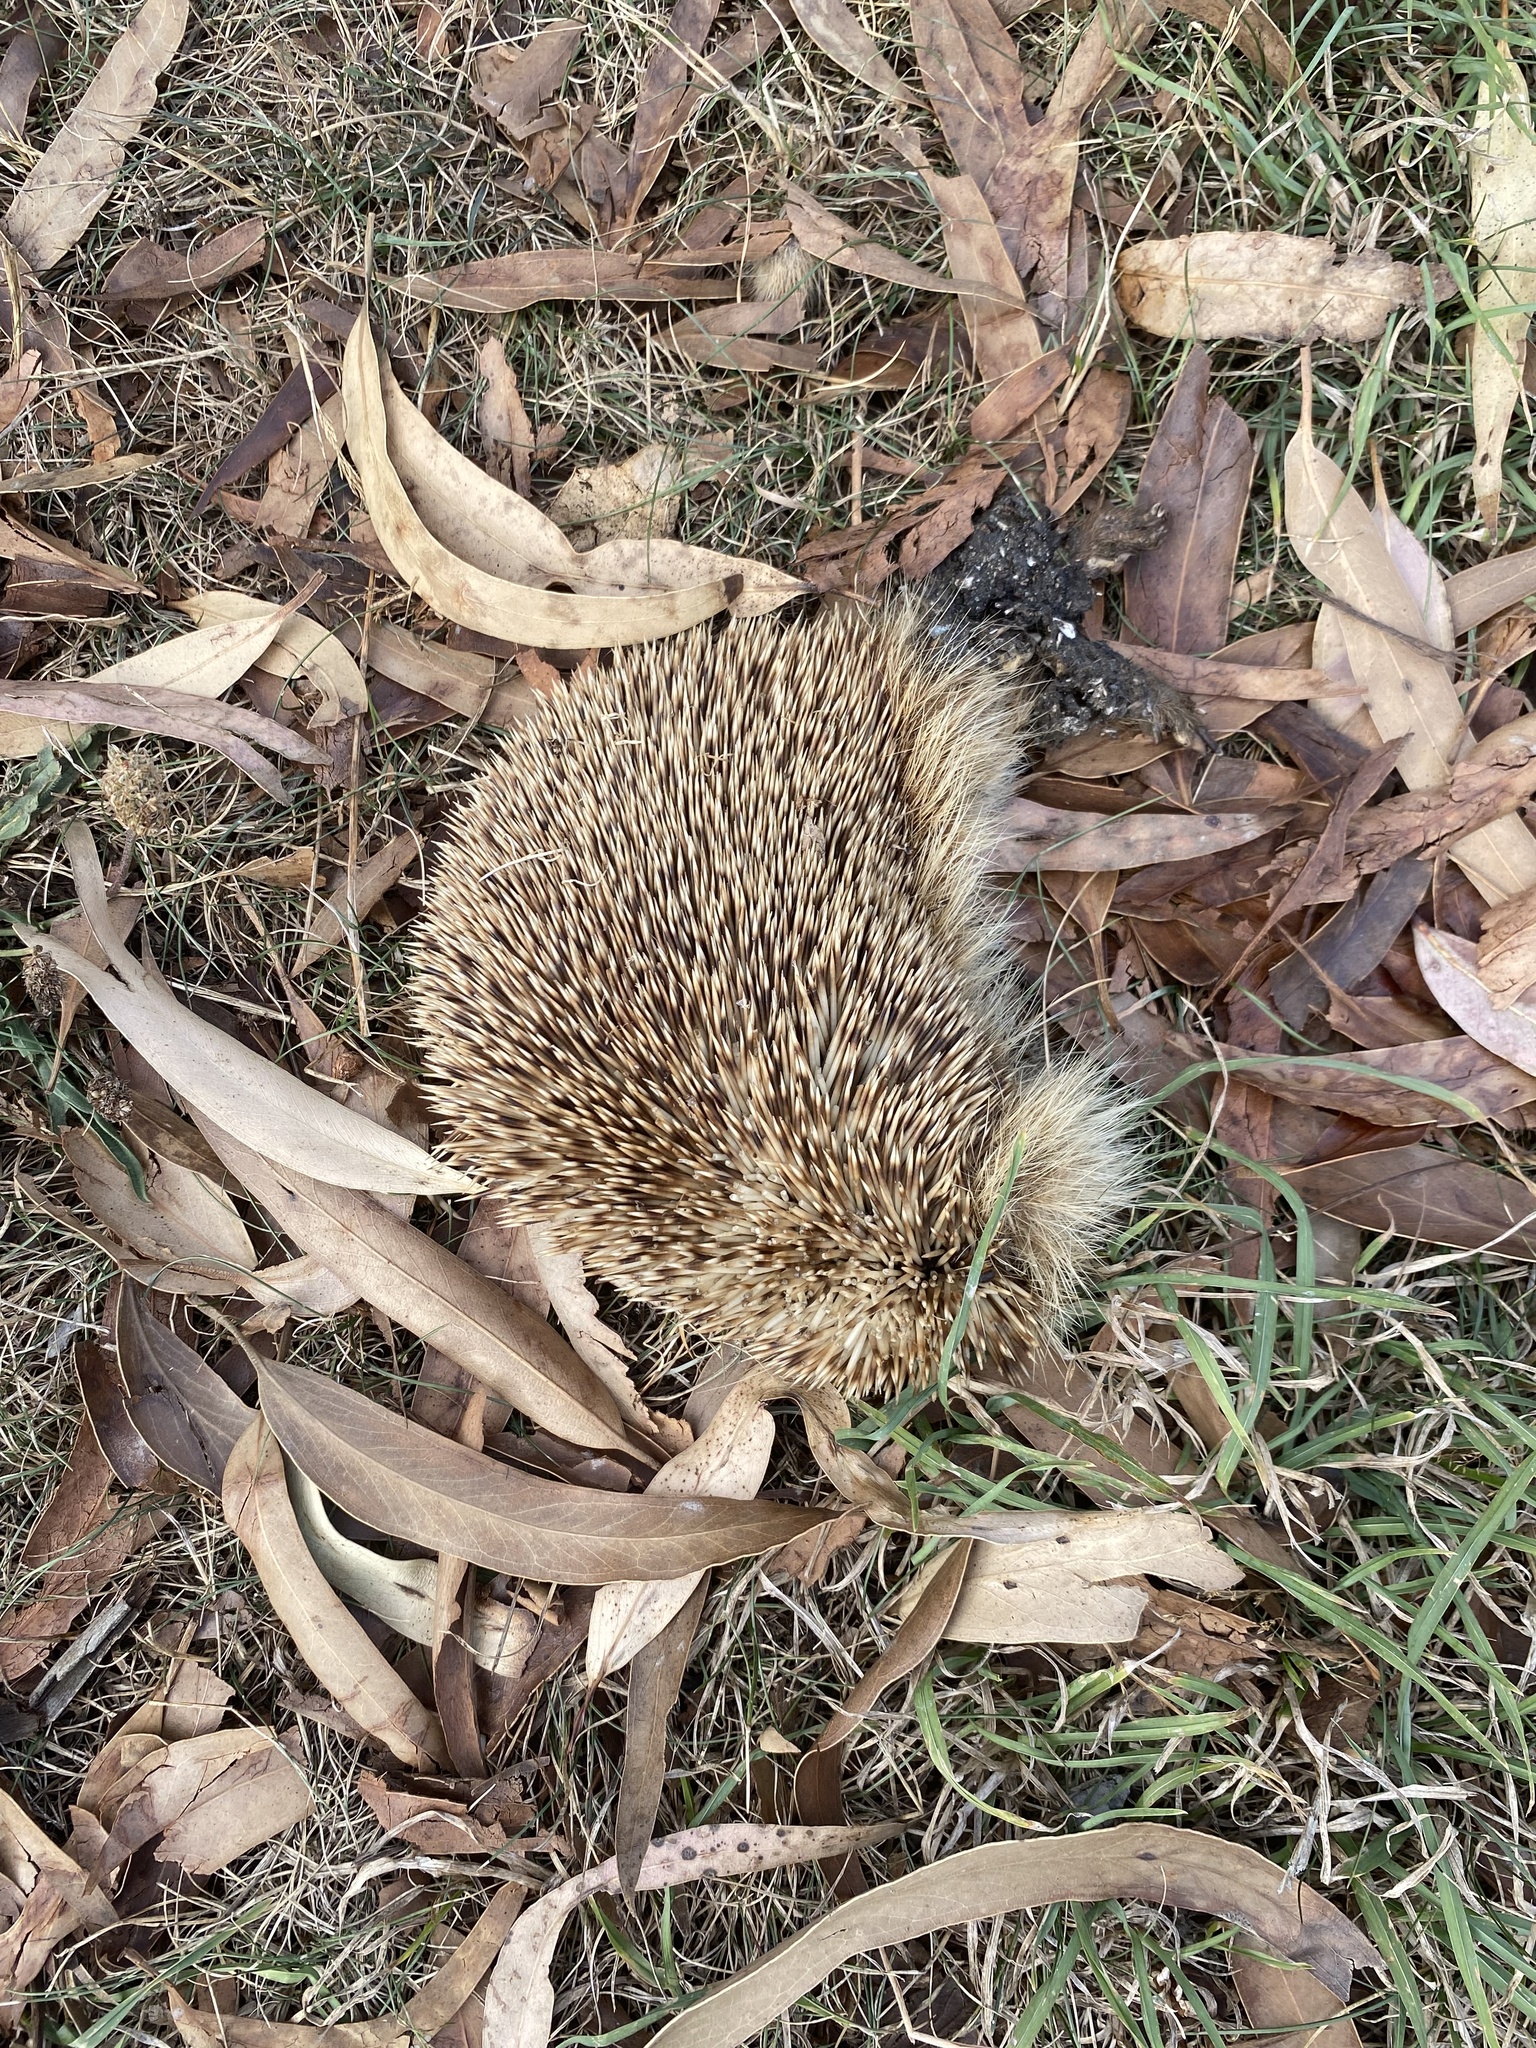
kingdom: Animalia
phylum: Chordata
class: Mammalia
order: Erinaceomorpha
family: Erinaceidae
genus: Erinaceus
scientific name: Erinaceus europaeus
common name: West european hedgehog
